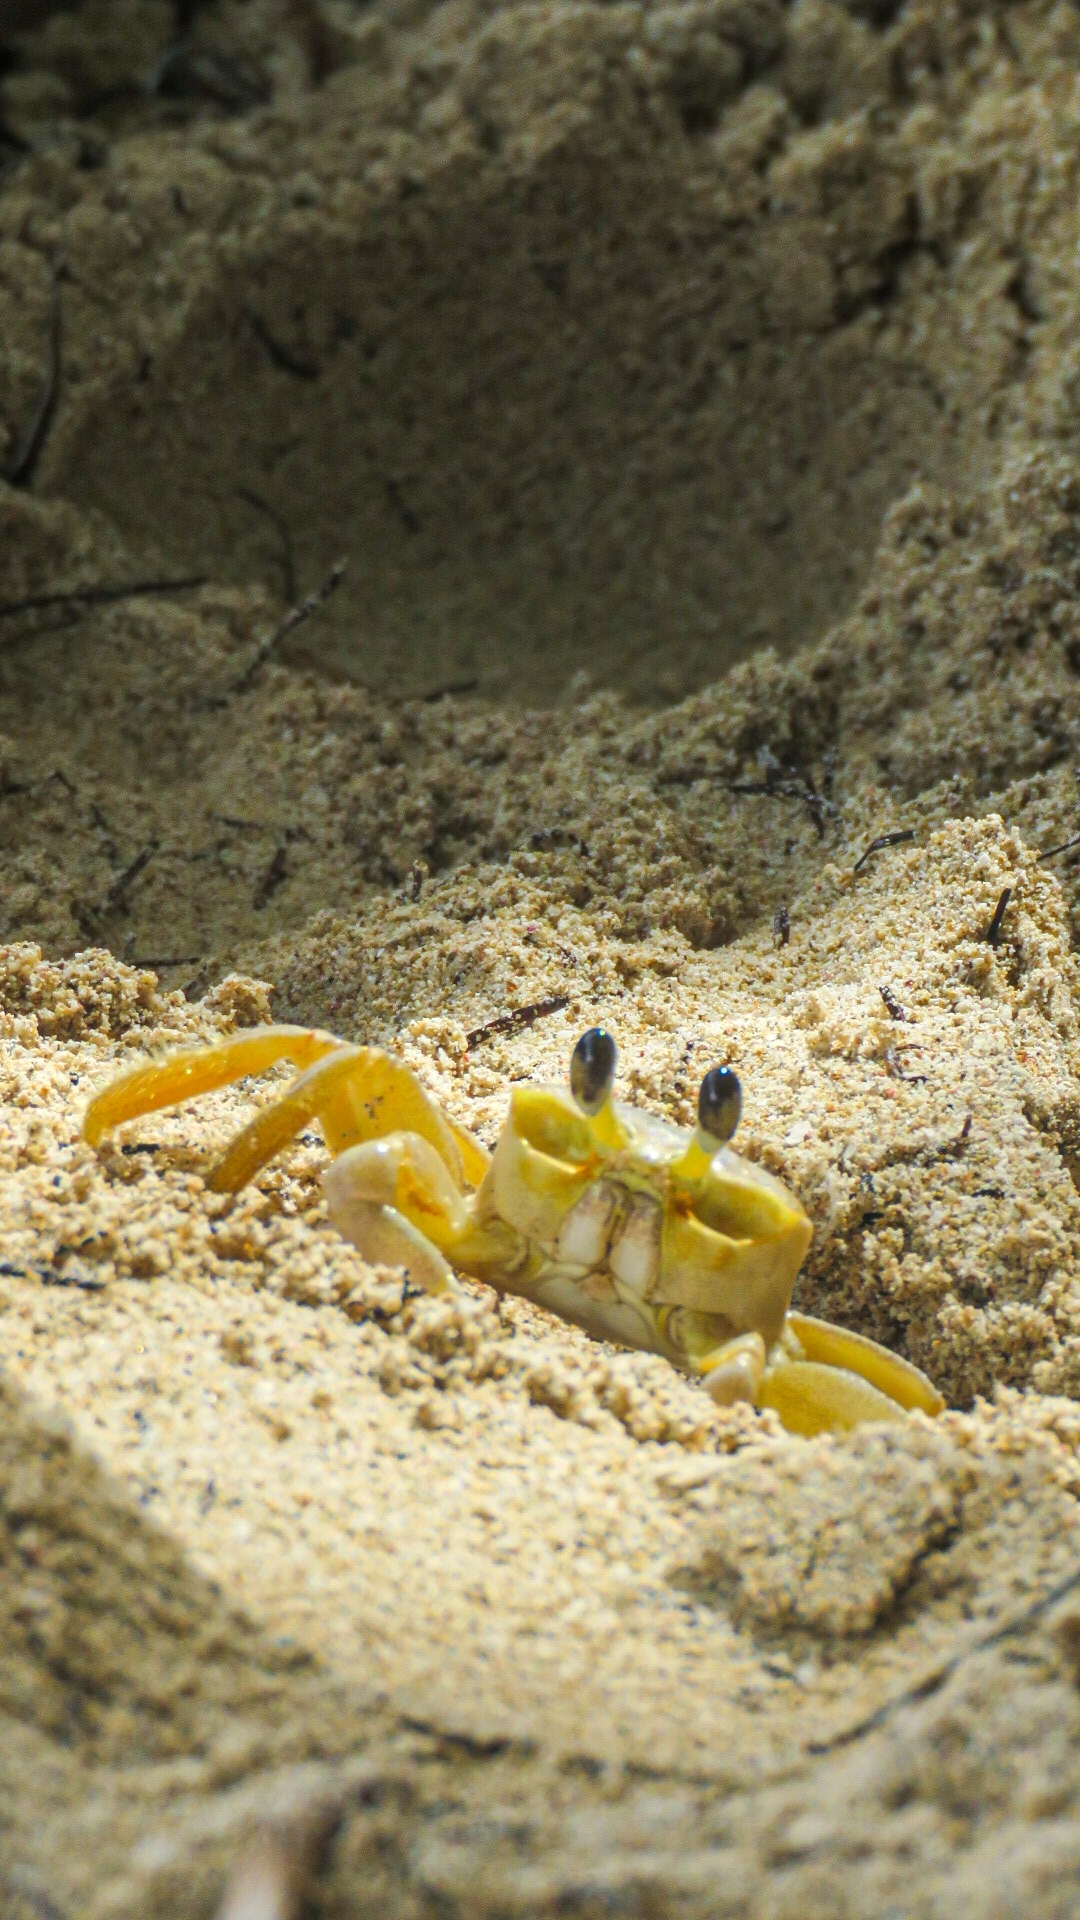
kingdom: Animalia
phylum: Arthropoda
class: Malacostraca
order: Decapoda
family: Ocypodidae
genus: Ocypode
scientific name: Ocypode quadrata
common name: Ghost crab
